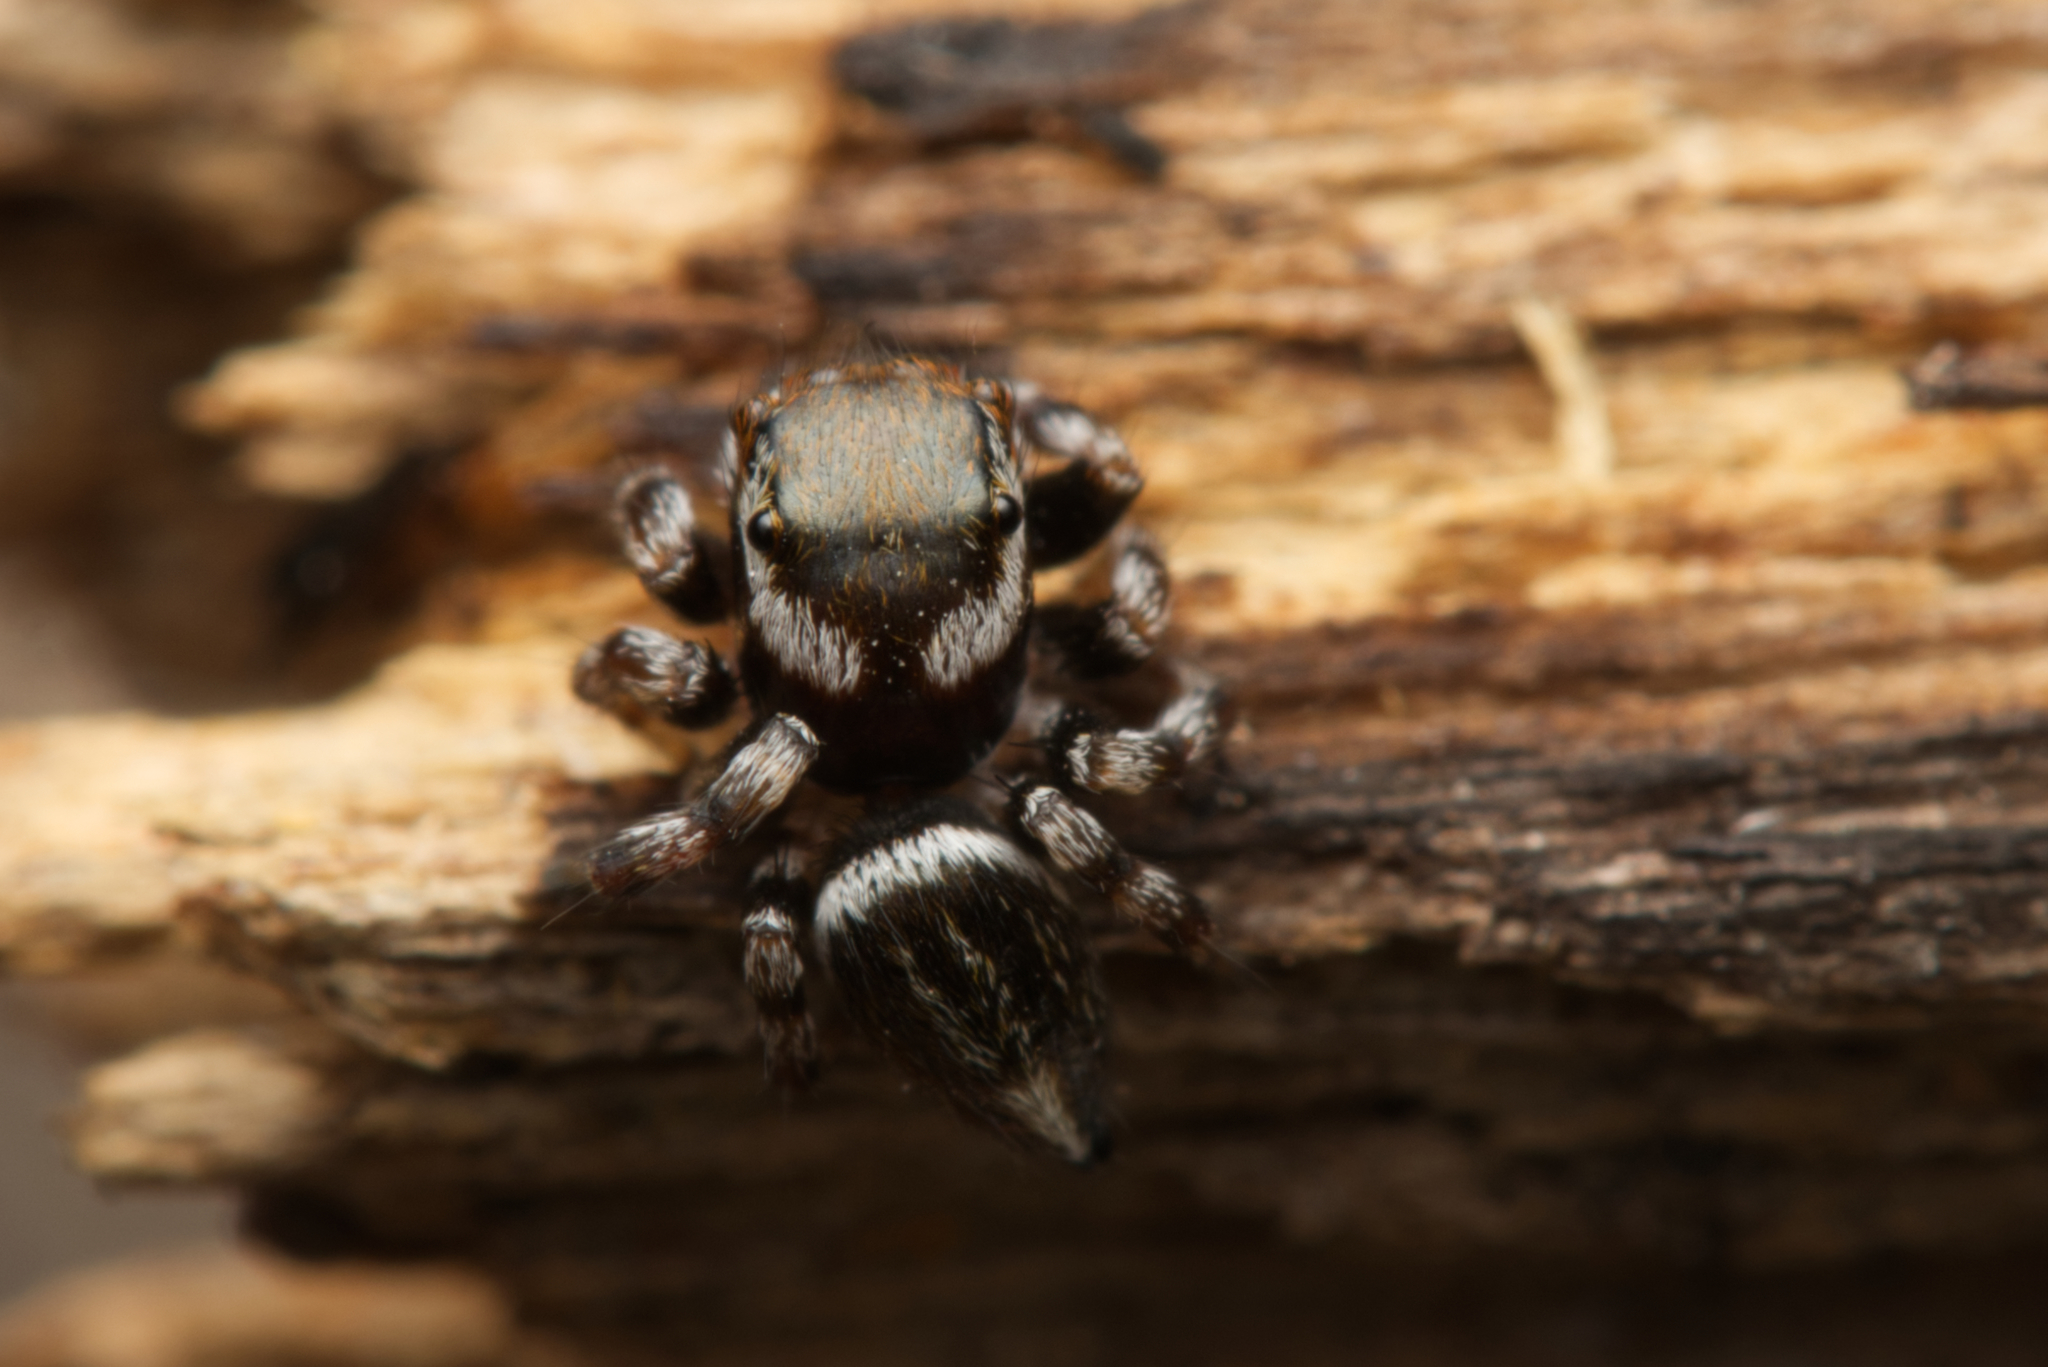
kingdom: Animalia
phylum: Arthropoda
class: Arachnida
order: Araneae
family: Salticidae
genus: Maratus
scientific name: Maratus scutulatus
